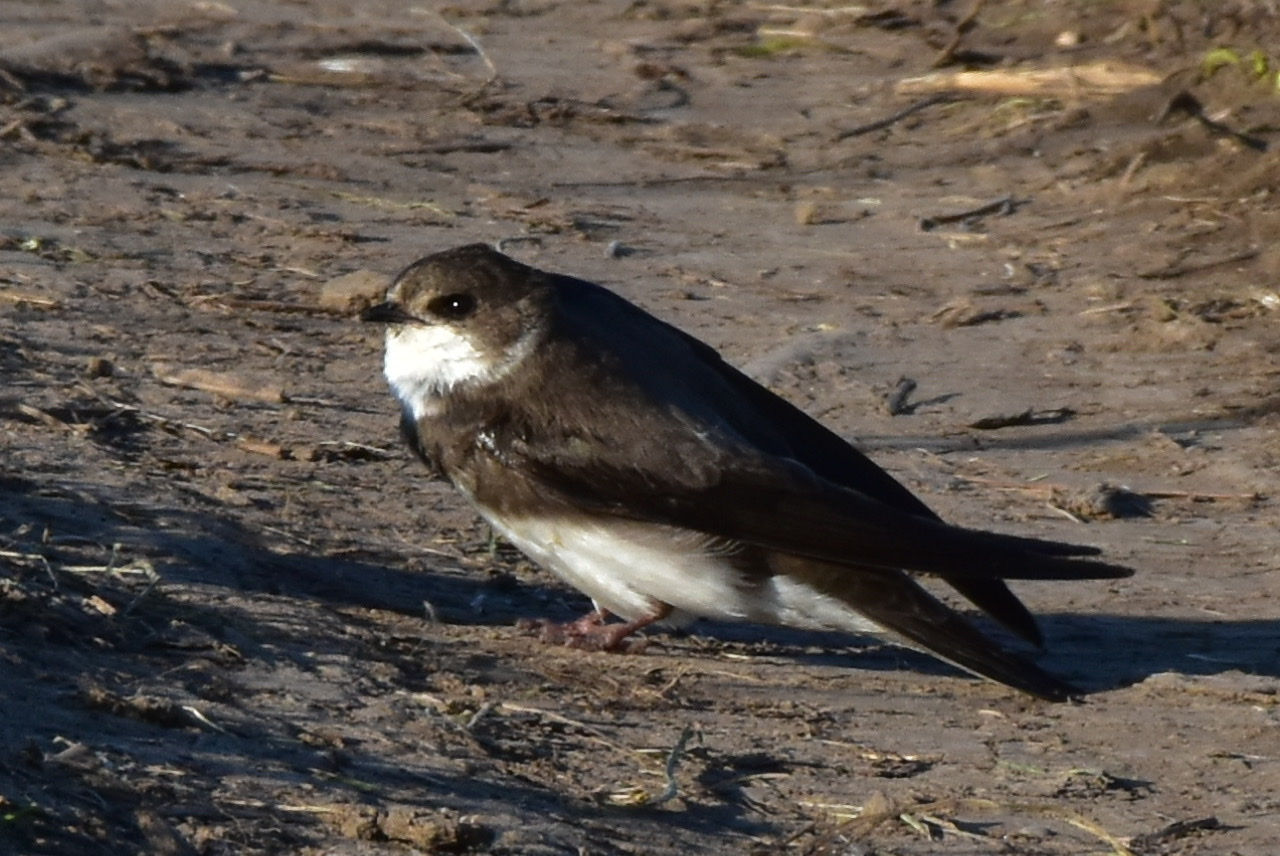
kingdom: Animalia
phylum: Chordata
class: Aves
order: Passeriformes
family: Hirundinidae
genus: Riparia
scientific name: Riparia riparia
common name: Sand martin
